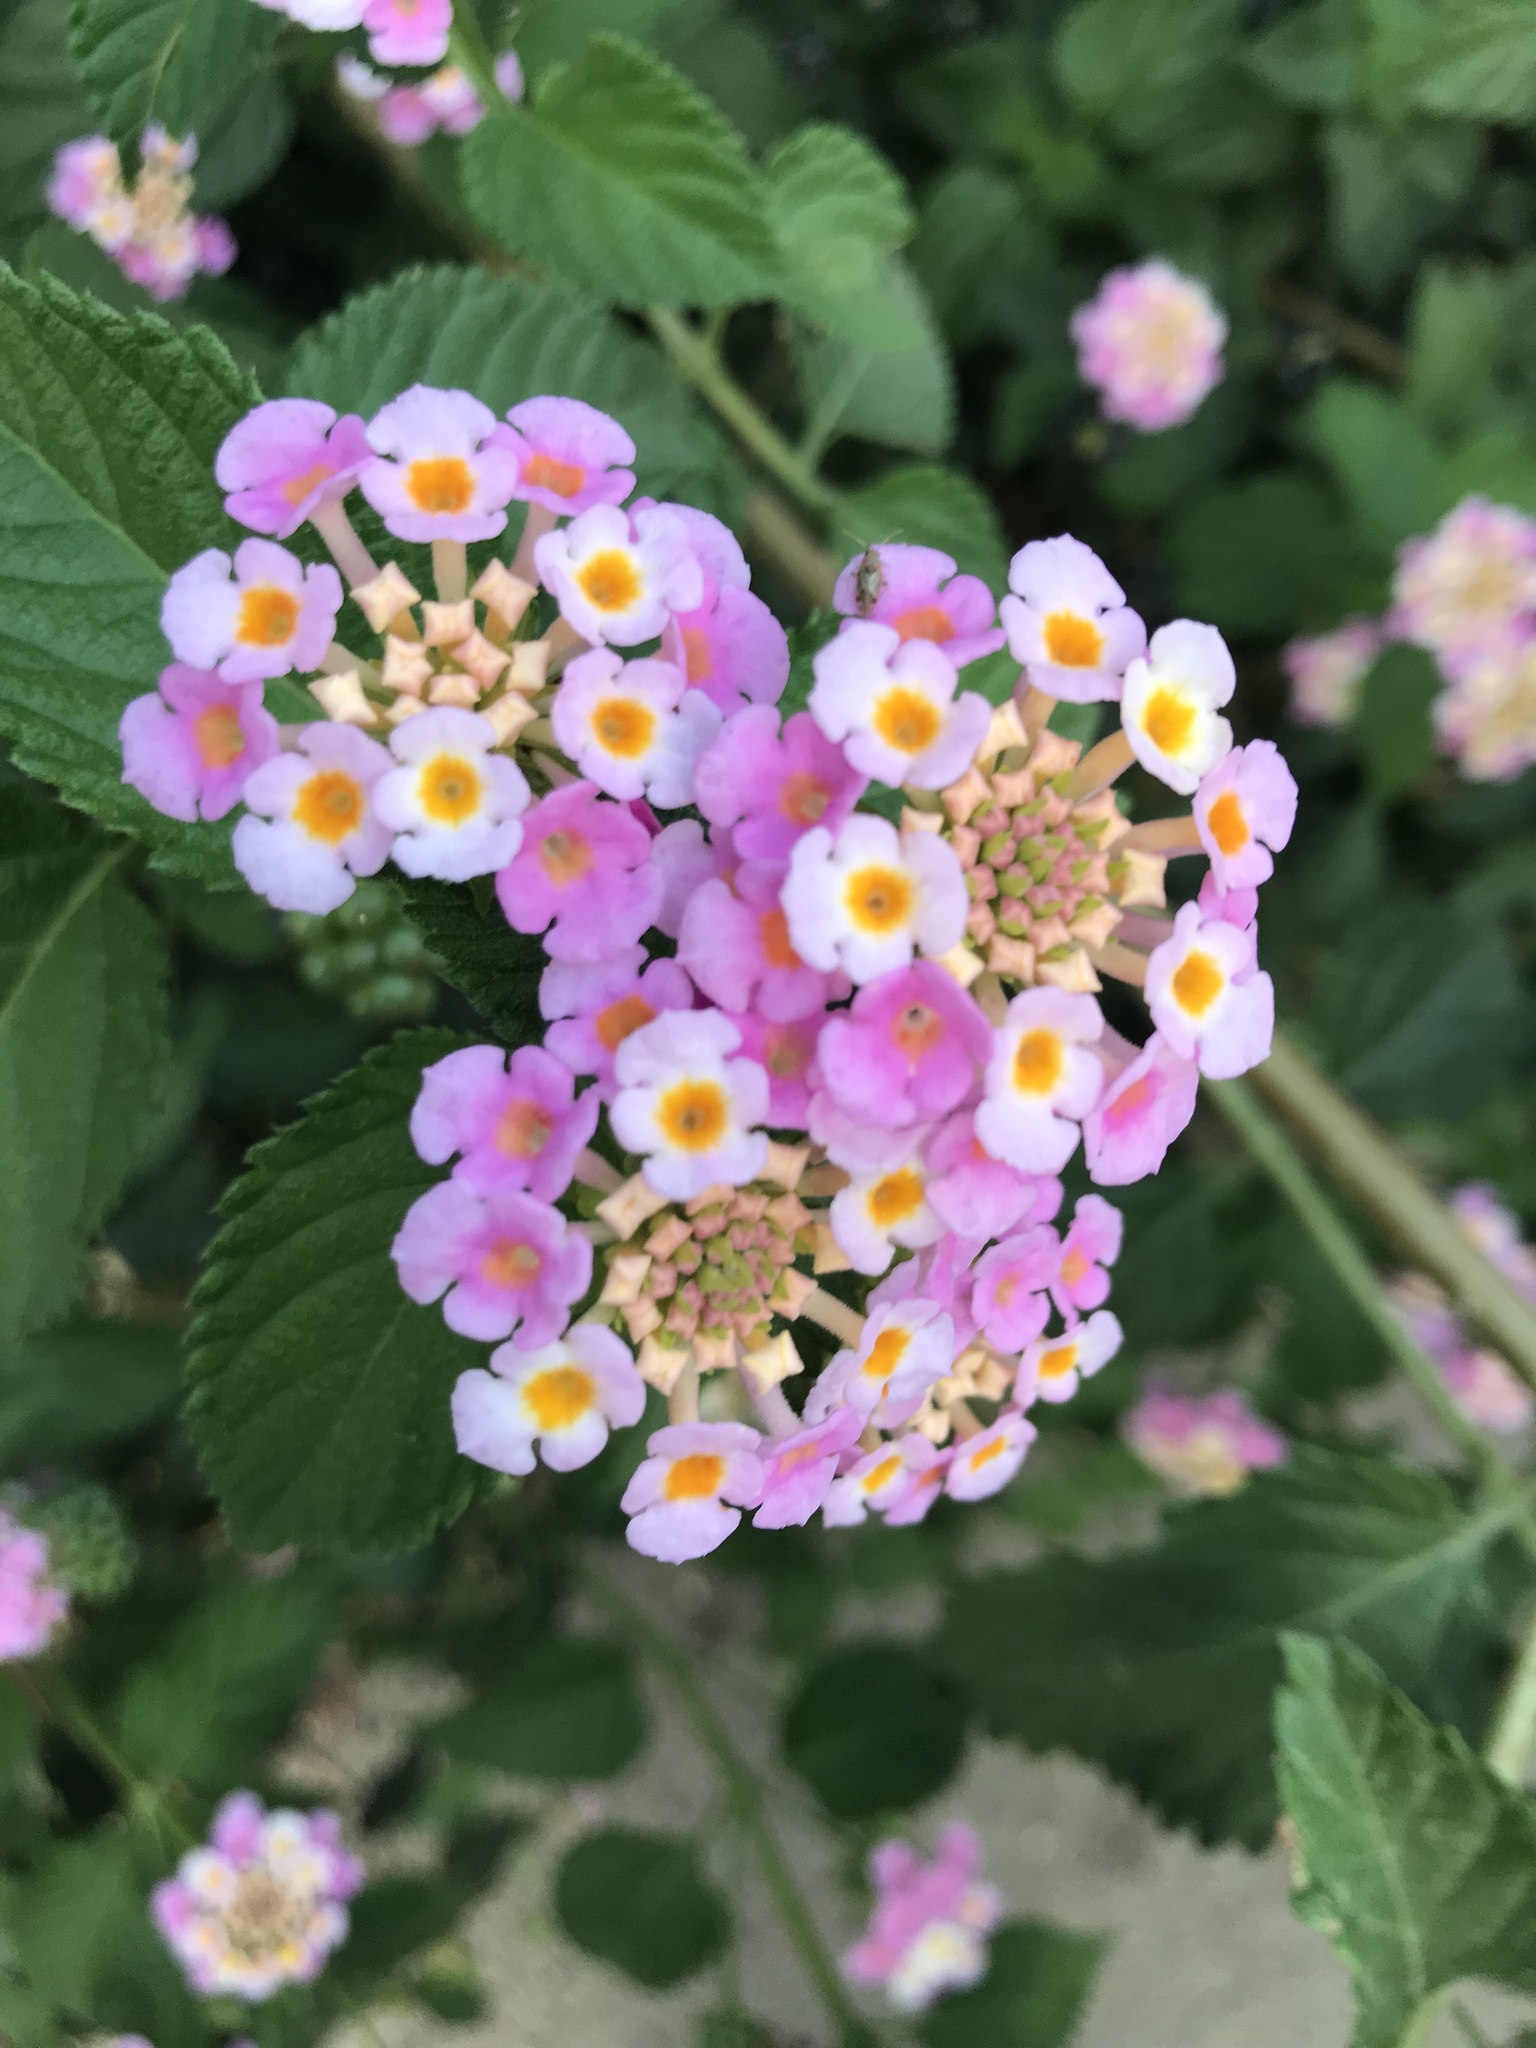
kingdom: Plantae
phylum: Tracheophyta
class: Magnoliopsida
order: Lamiales
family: Verbenaceae
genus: Lantana
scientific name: Lantana camara
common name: Lantana
